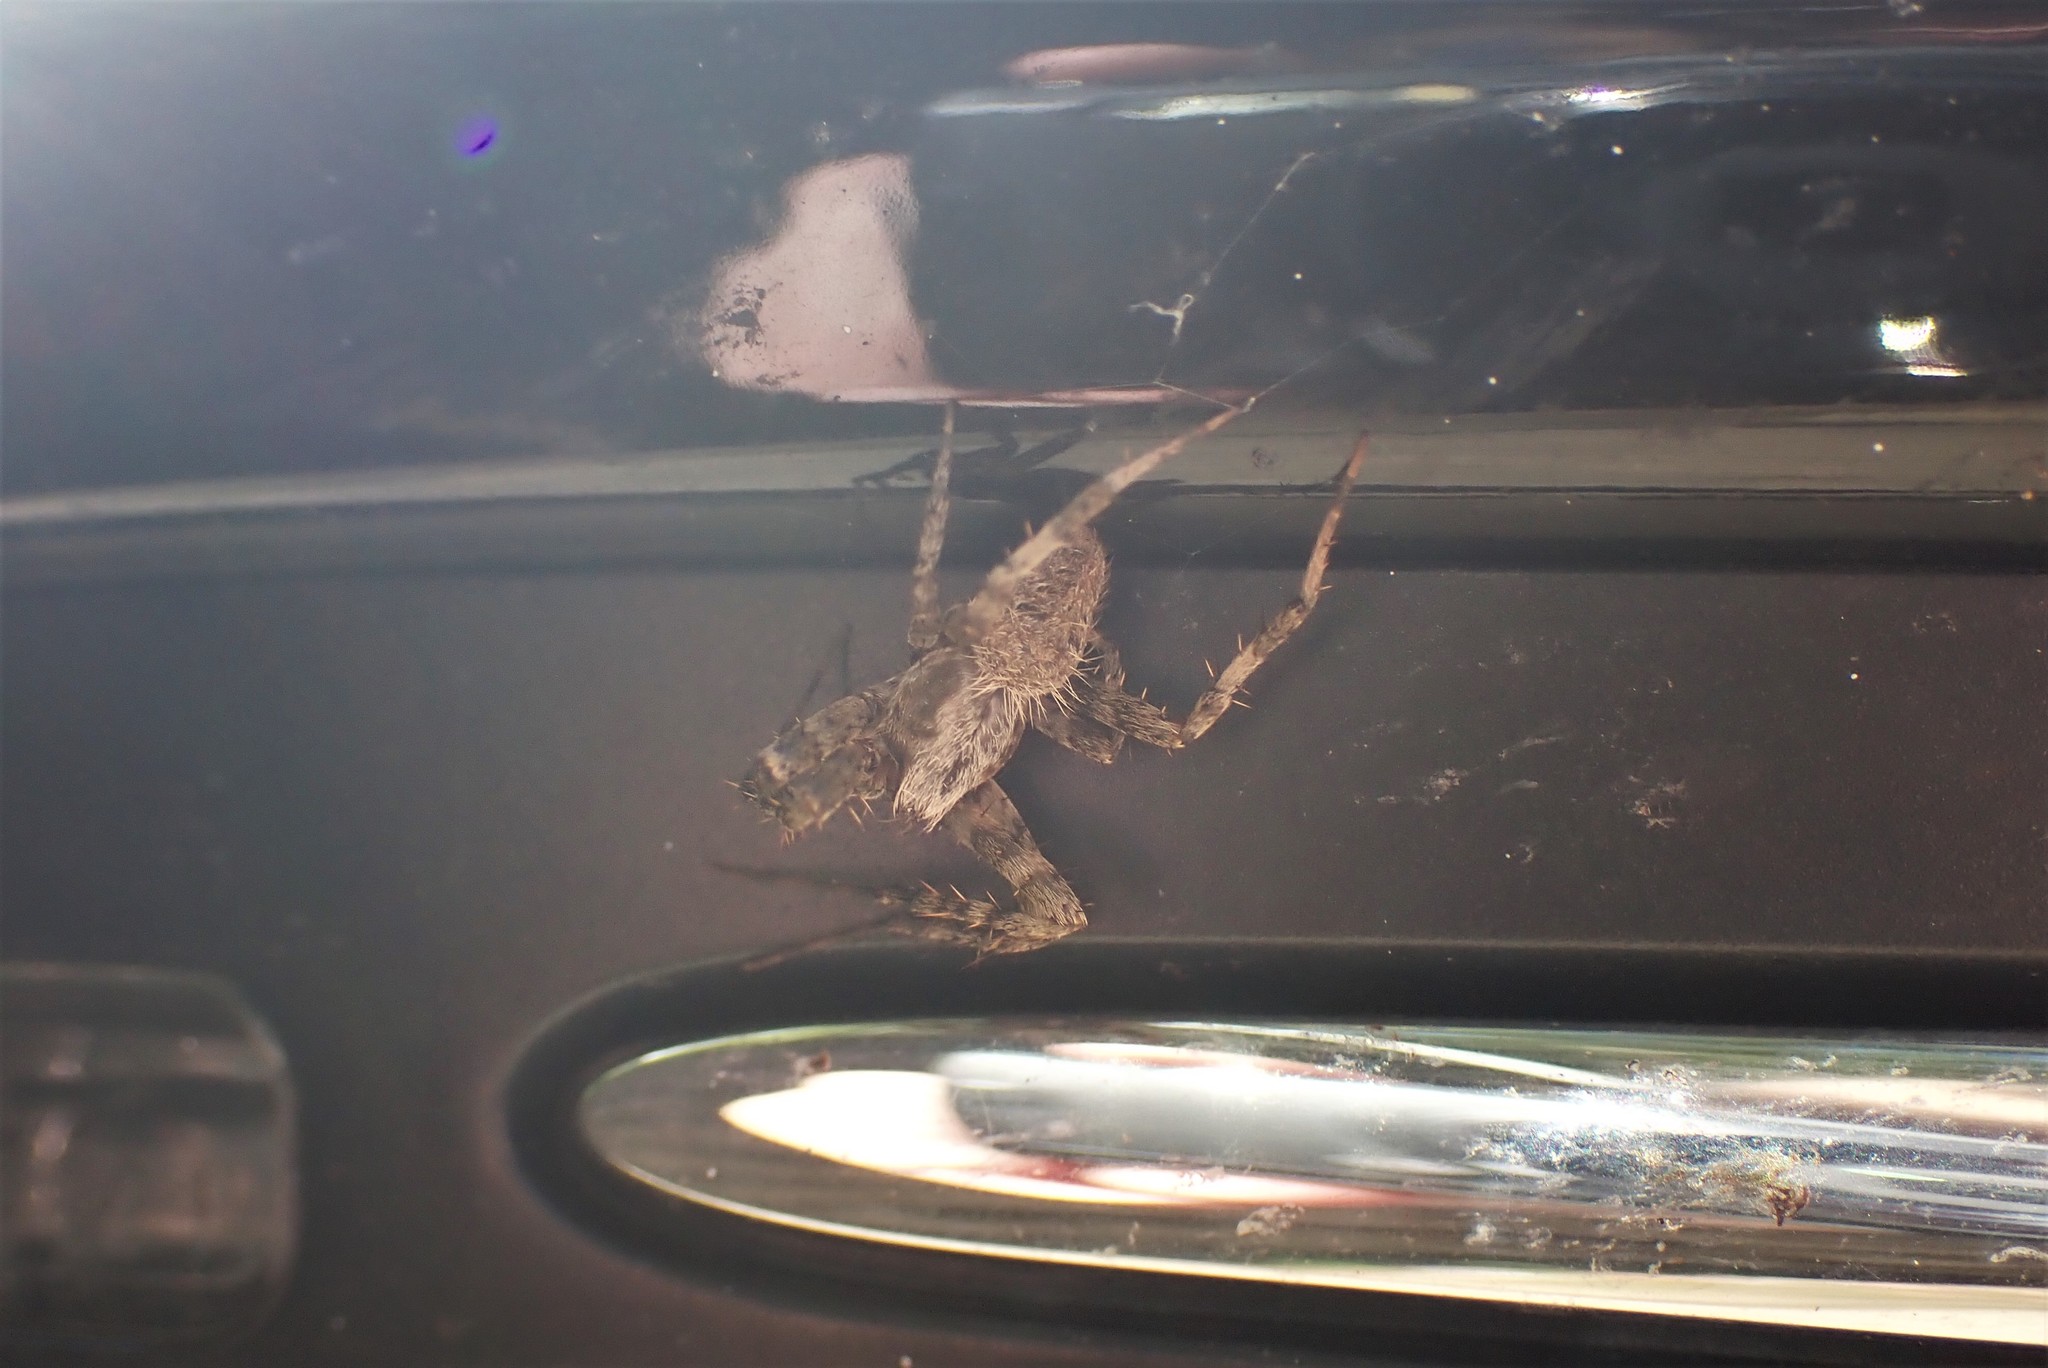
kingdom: Animalia
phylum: Arthropoda
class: Arachnida
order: Araneae
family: Araneidae
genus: Neoscona
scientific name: Neoscona crucifera
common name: Spotted orbweaver
